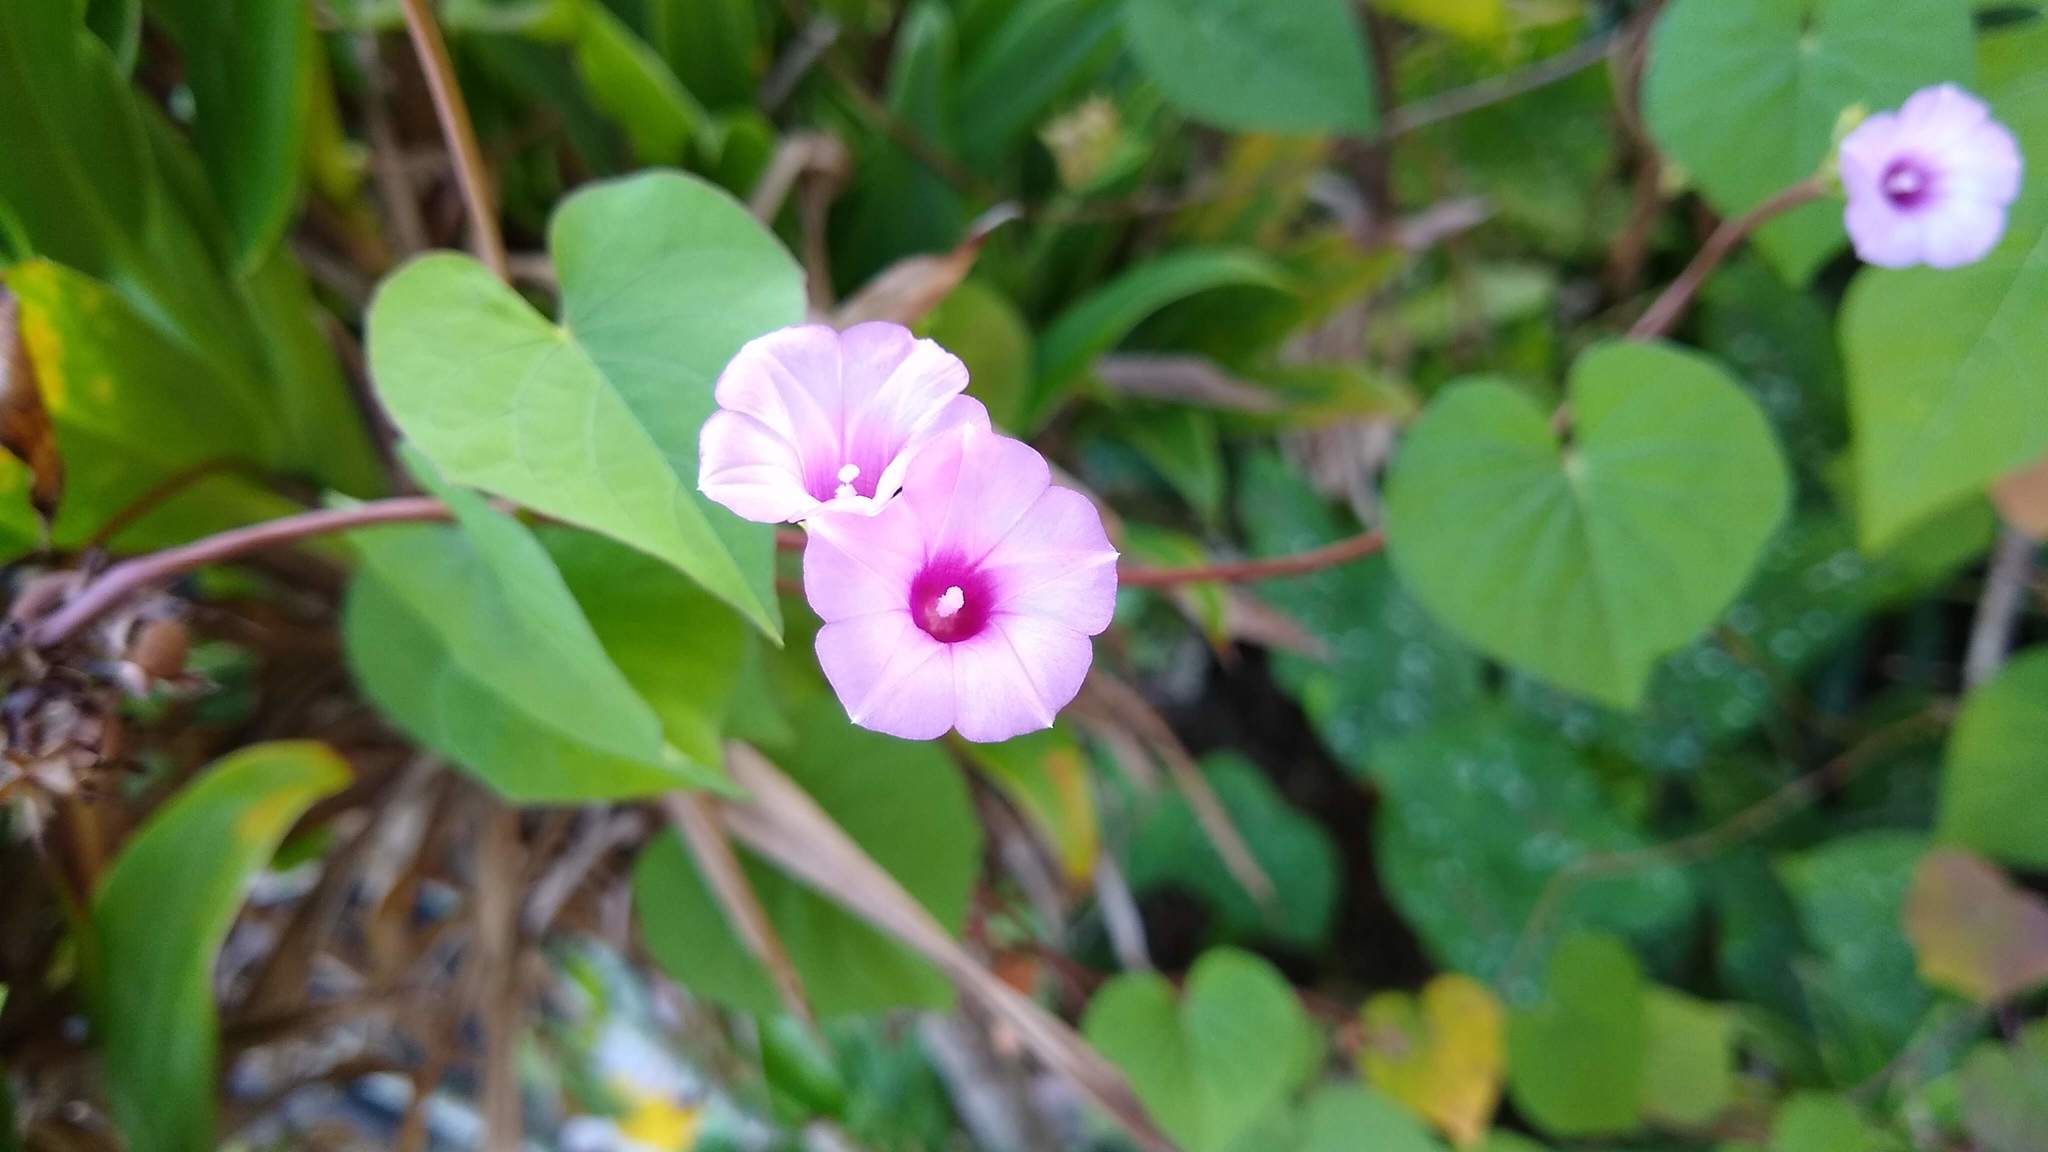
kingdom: Plantae
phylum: Tracheophyta
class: Magnoliopsida
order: Solanales
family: Convolvulaceae
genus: Ipomoea
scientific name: Ipomoea littoralis
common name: Coastal morning glory
